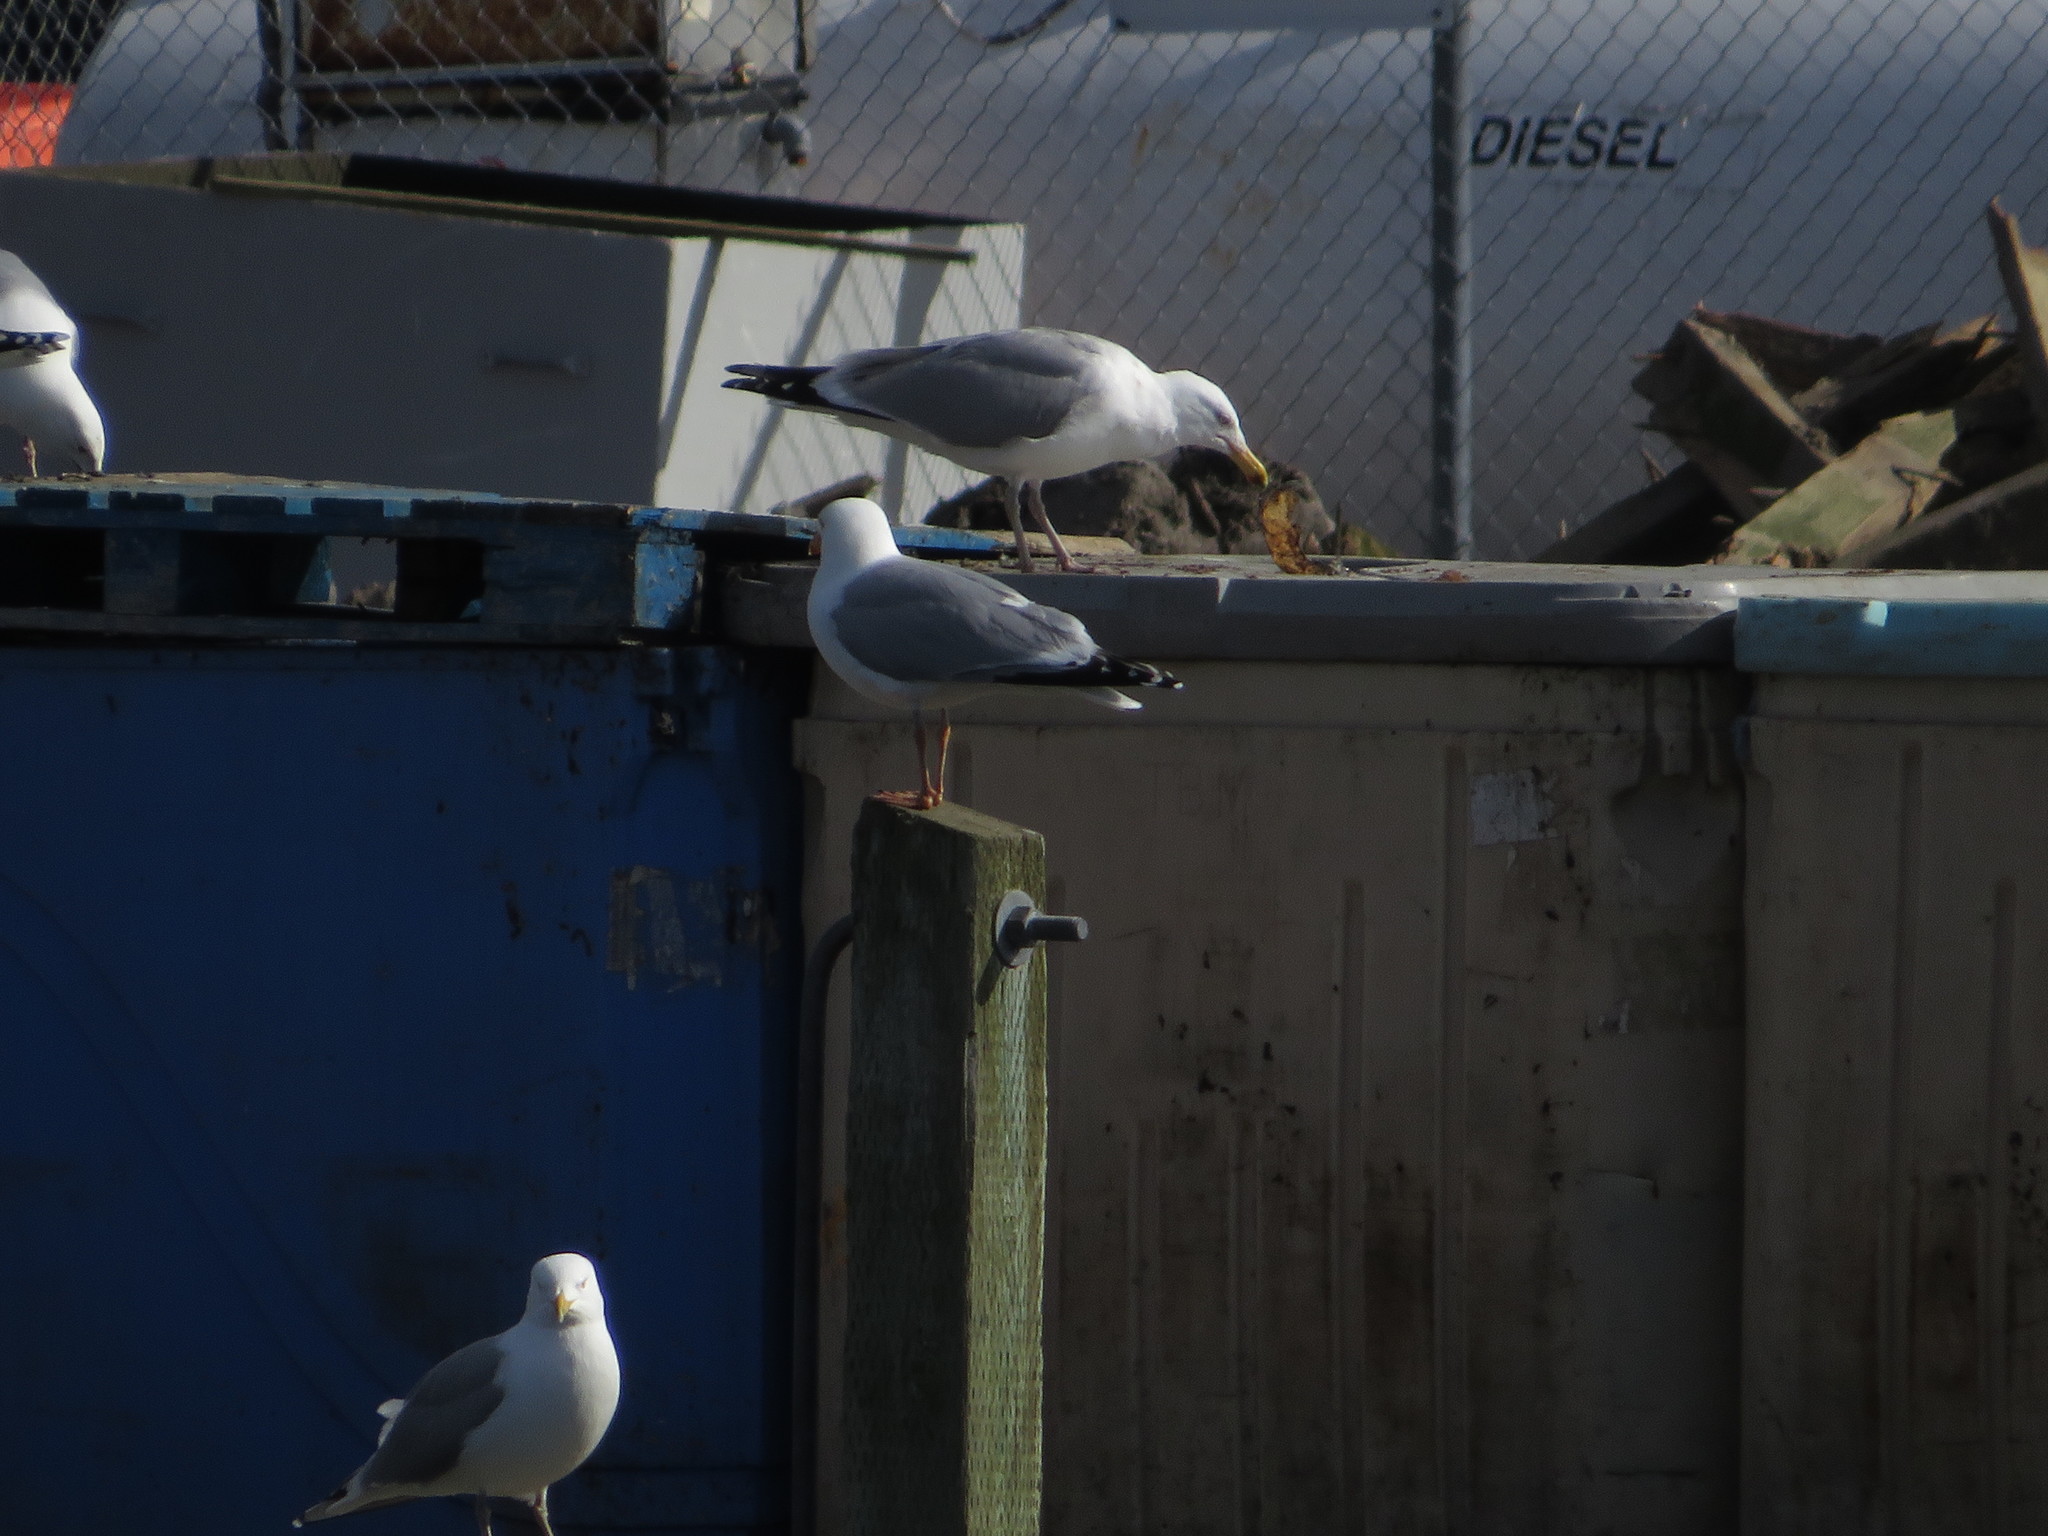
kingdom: Animalia
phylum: Chordata
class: Aves
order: Charadriiformes
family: Laridae
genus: Larus
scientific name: Larus argentatus
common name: Herring gull
